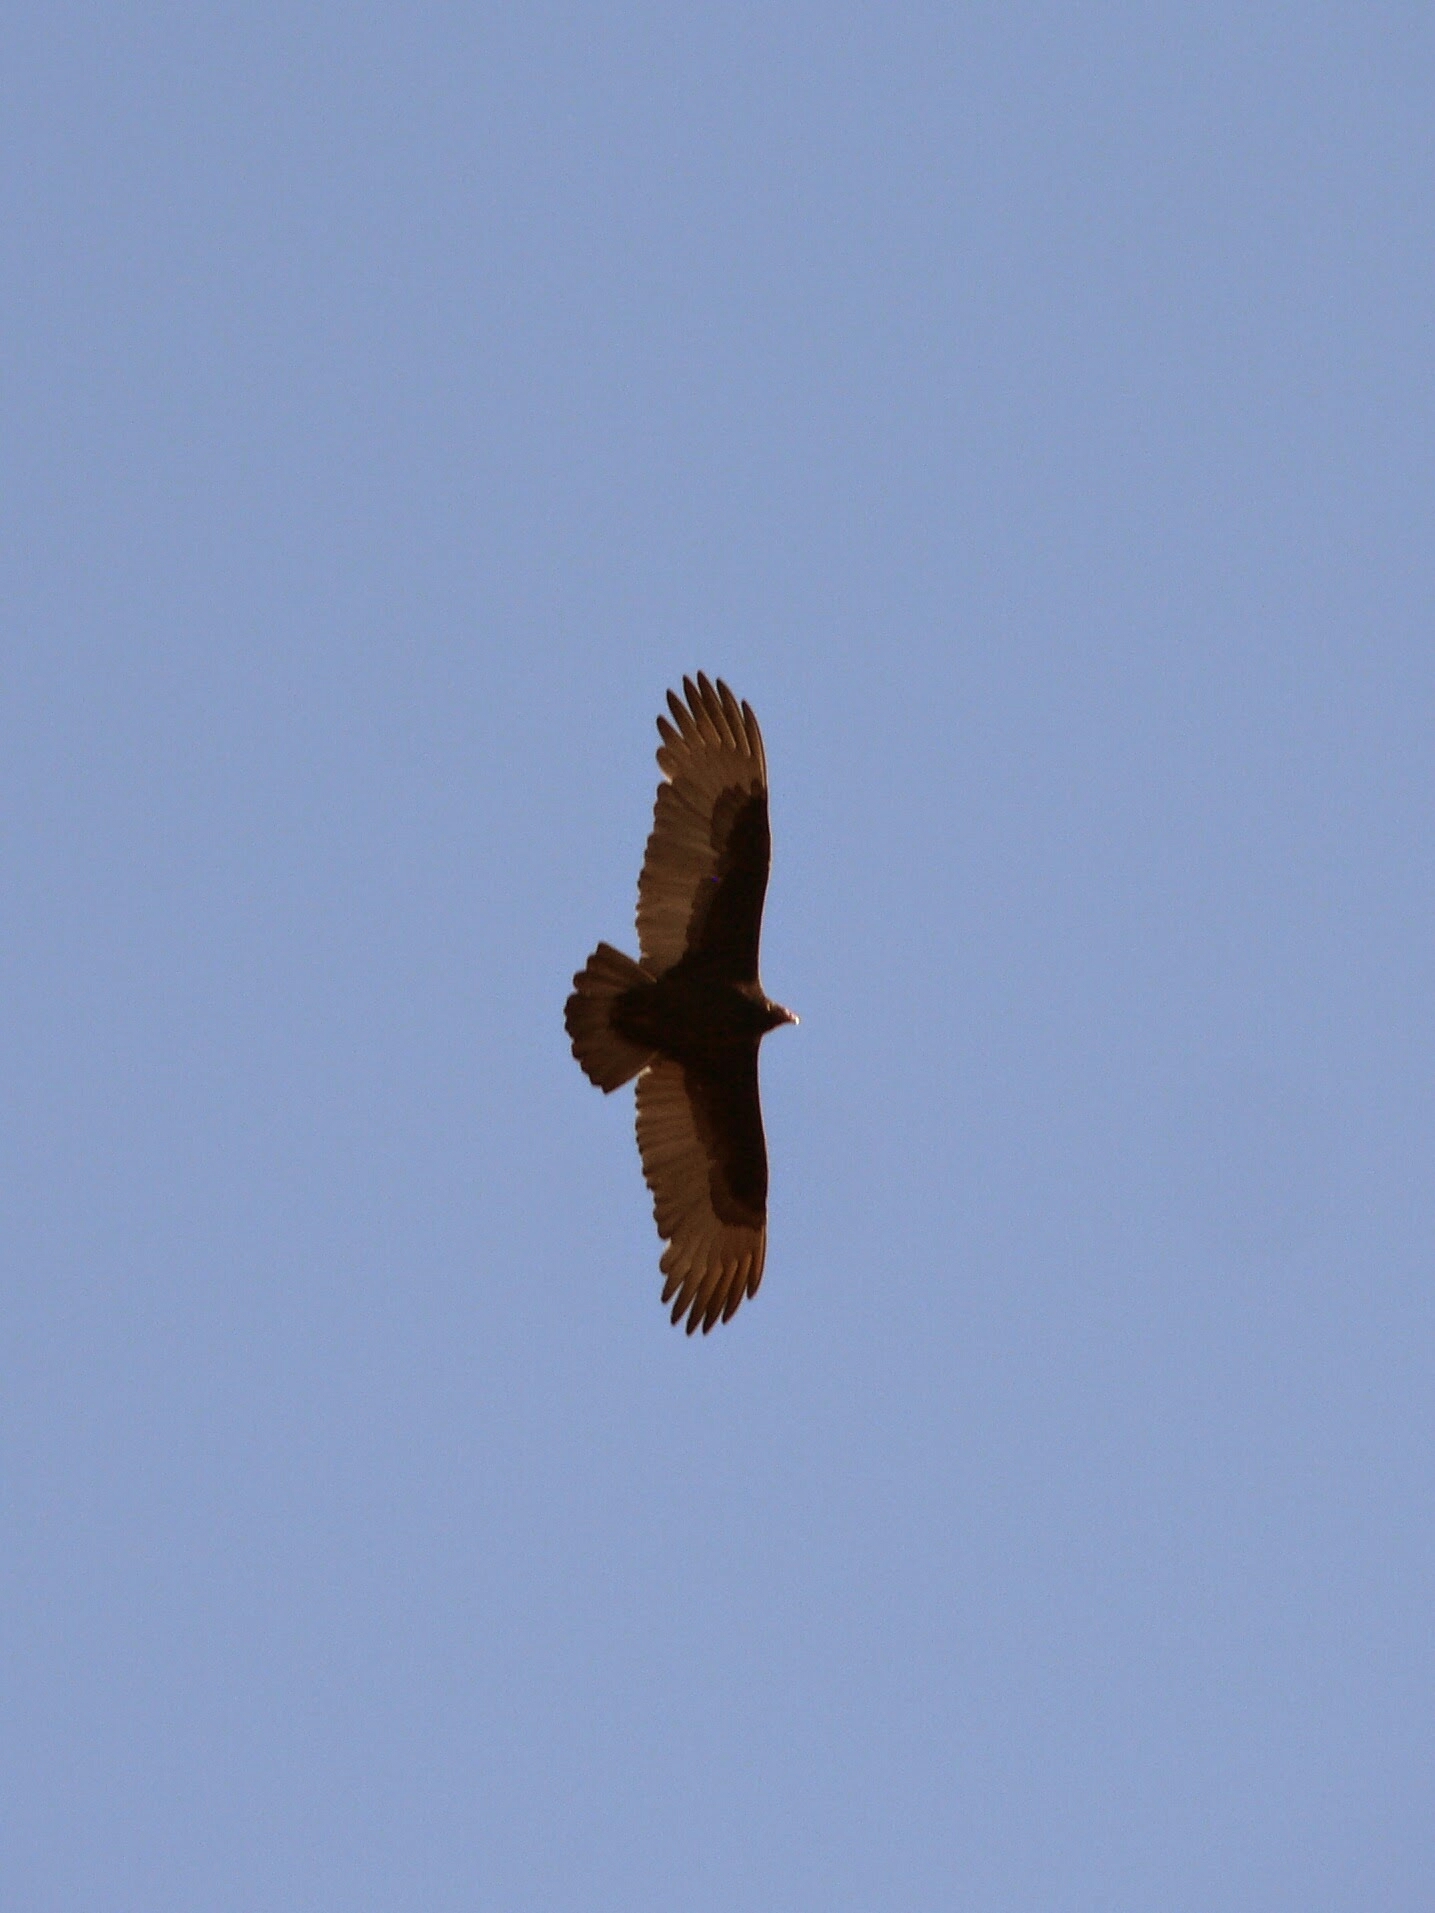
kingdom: Animalia
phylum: Chordata
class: Aves
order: Accipitriformes
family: Cathartidae
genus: Cathartes
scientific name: Cathartes aura
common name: Turkey vulture
